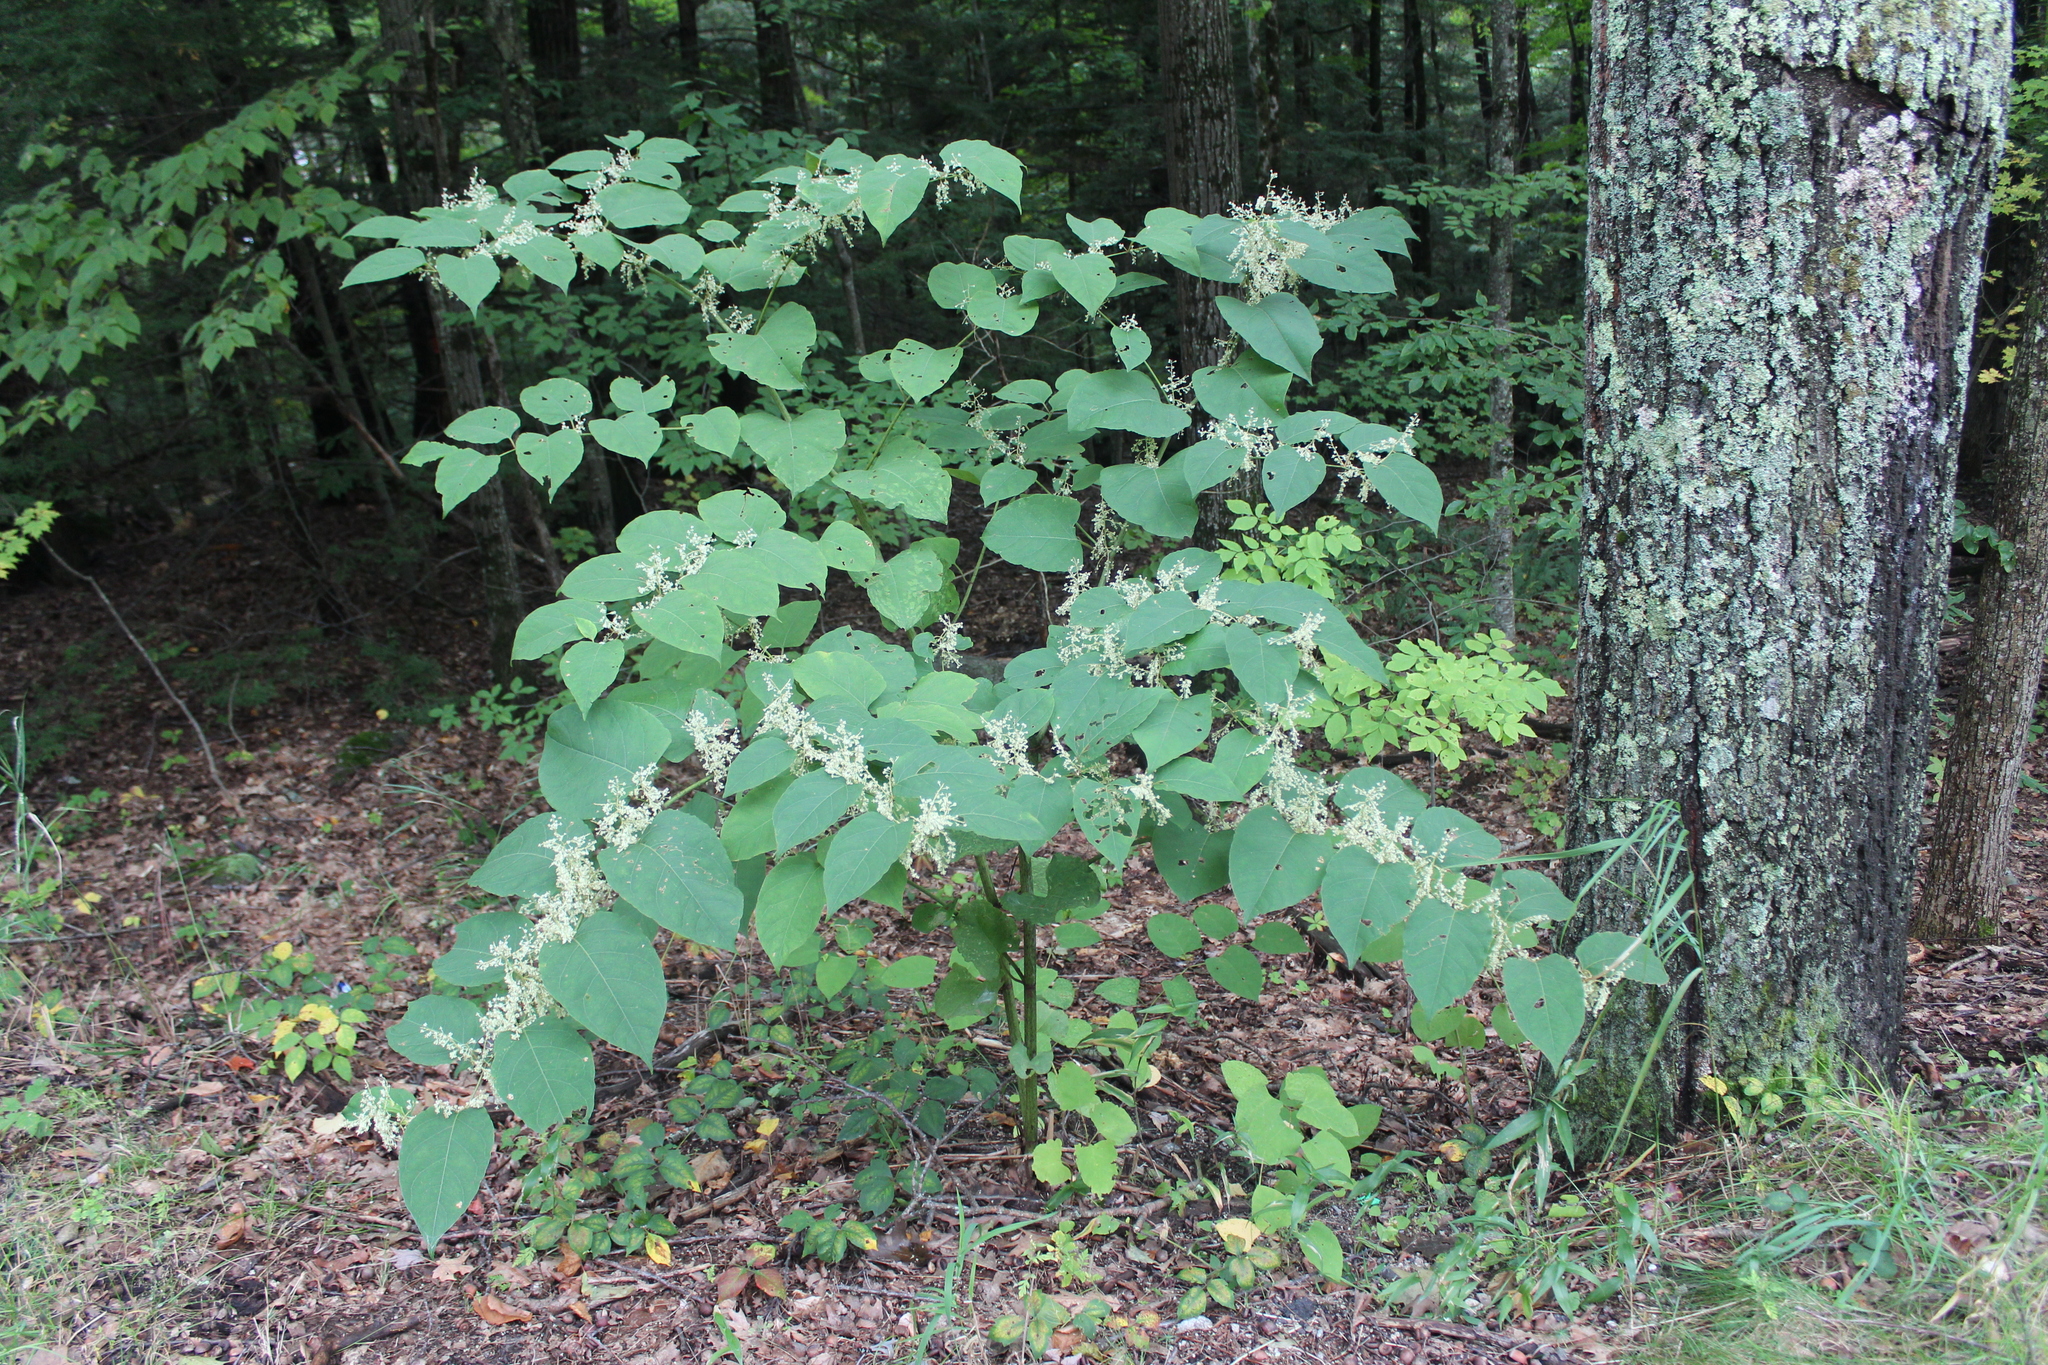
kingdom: Plantae
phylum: Tracheophyta
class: Magnoliopsida
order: Caryophyllales
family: Polygonaceae
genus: Reynoutria
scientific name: Reynoutria japonica
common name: Japanese knotweed
